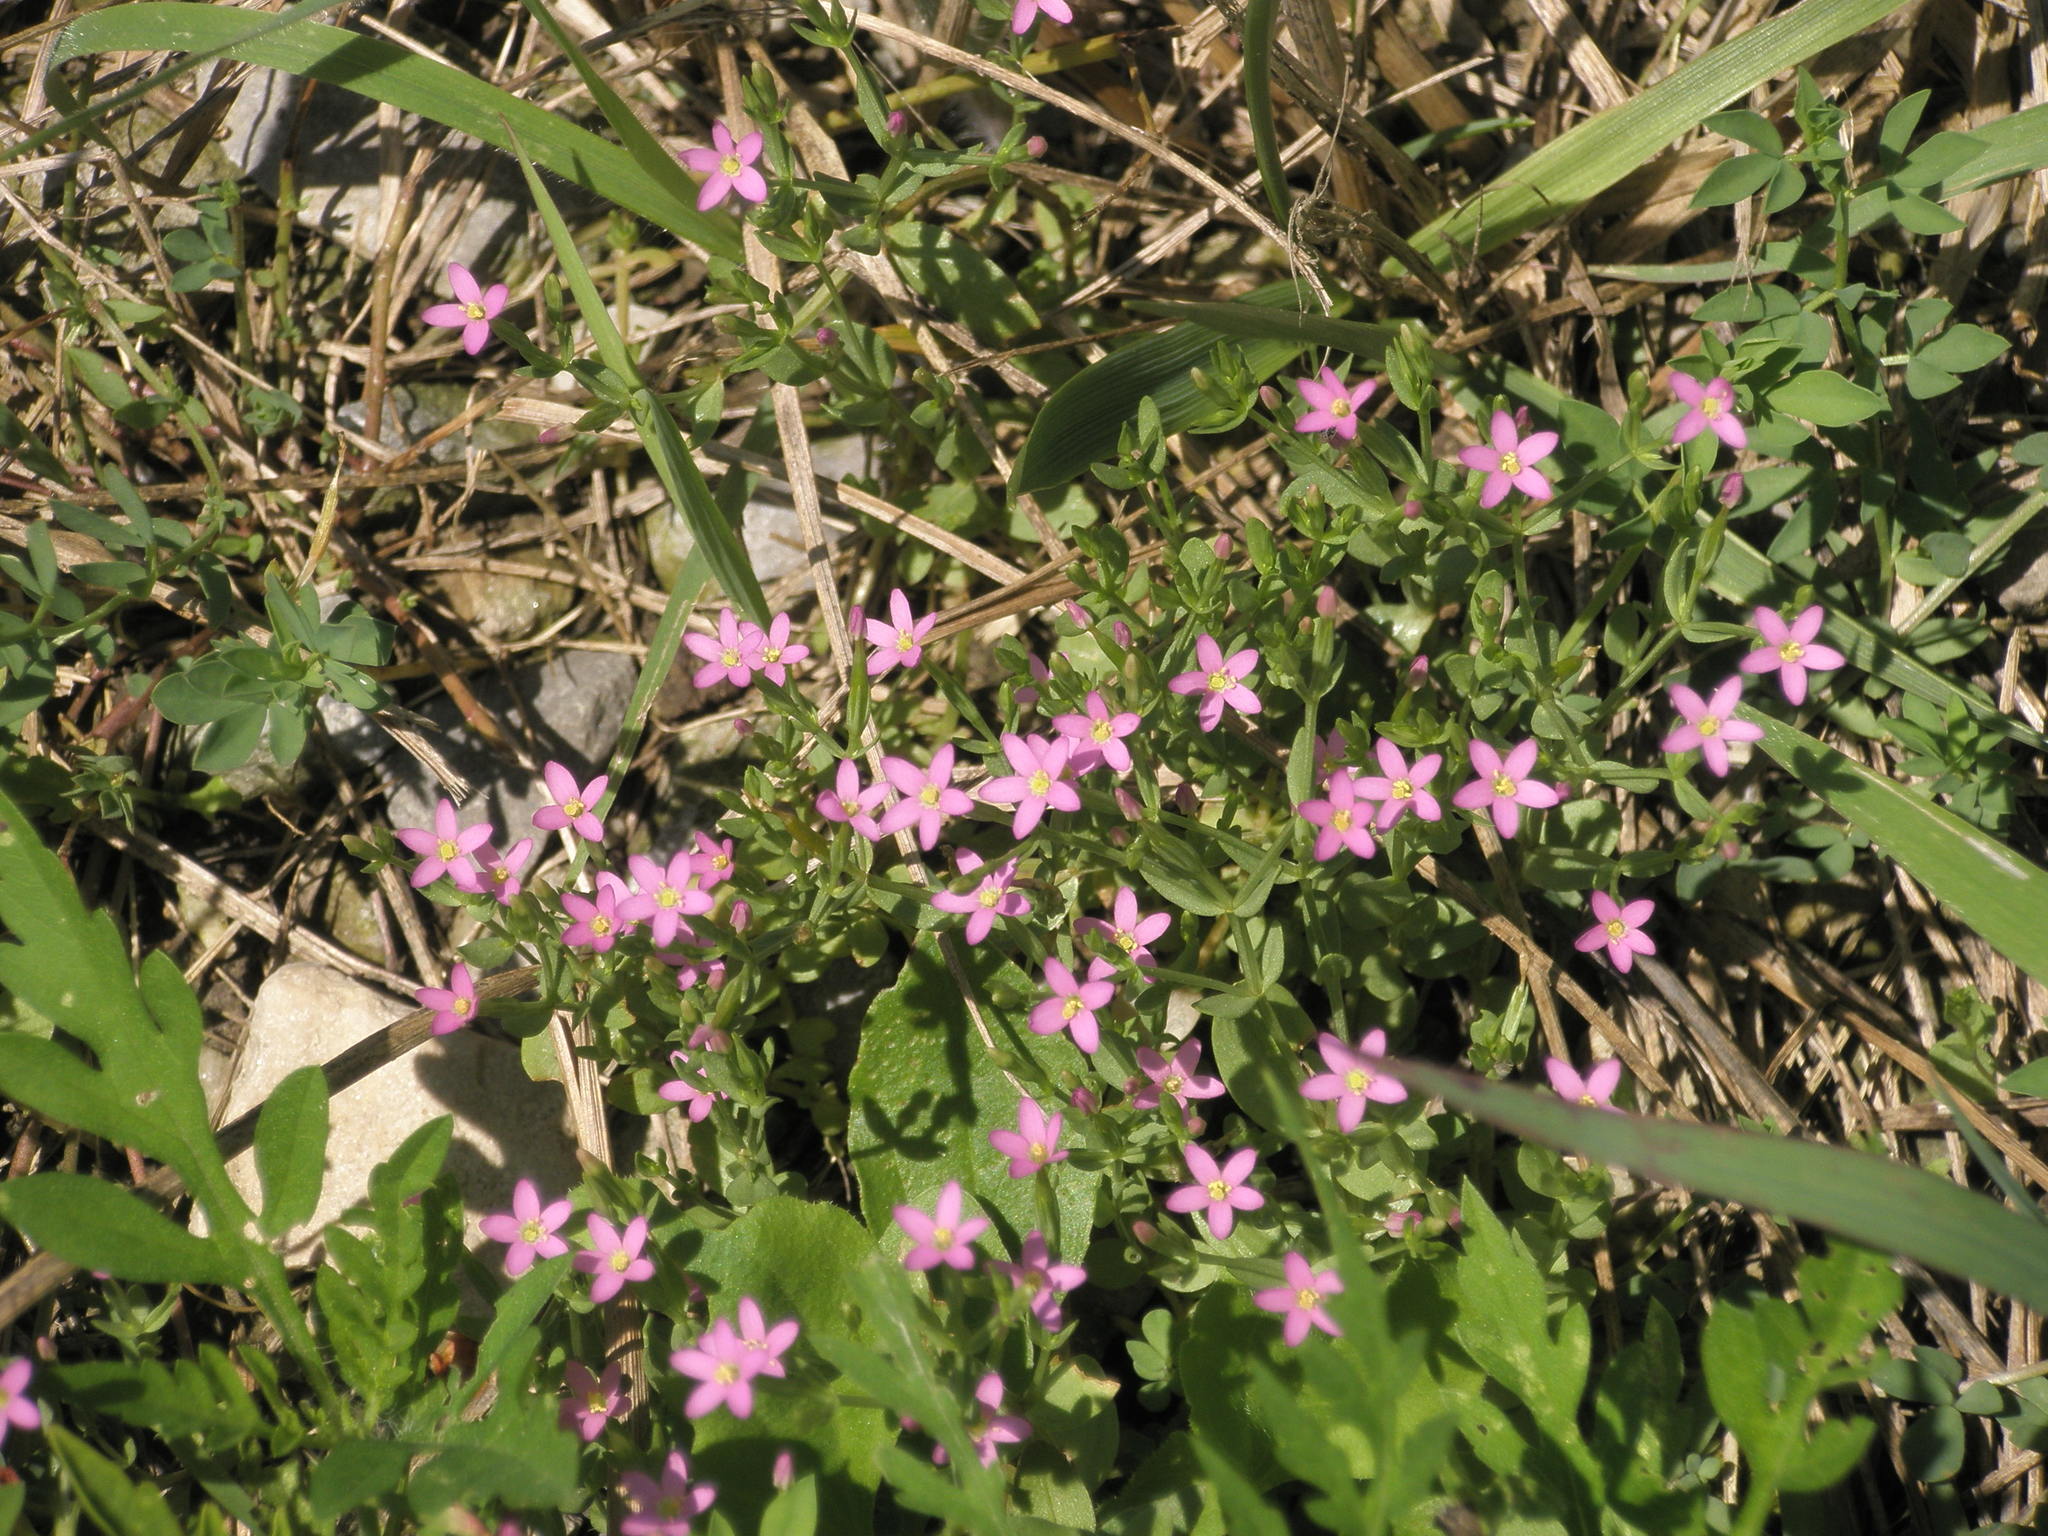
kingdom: Plantae
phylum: Tracheophyta
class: Magnoliopsida
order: Gentianales
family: Gentianaceae
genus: Centaurium
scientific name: Centaurium pulchellum
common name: Lesser centaury
